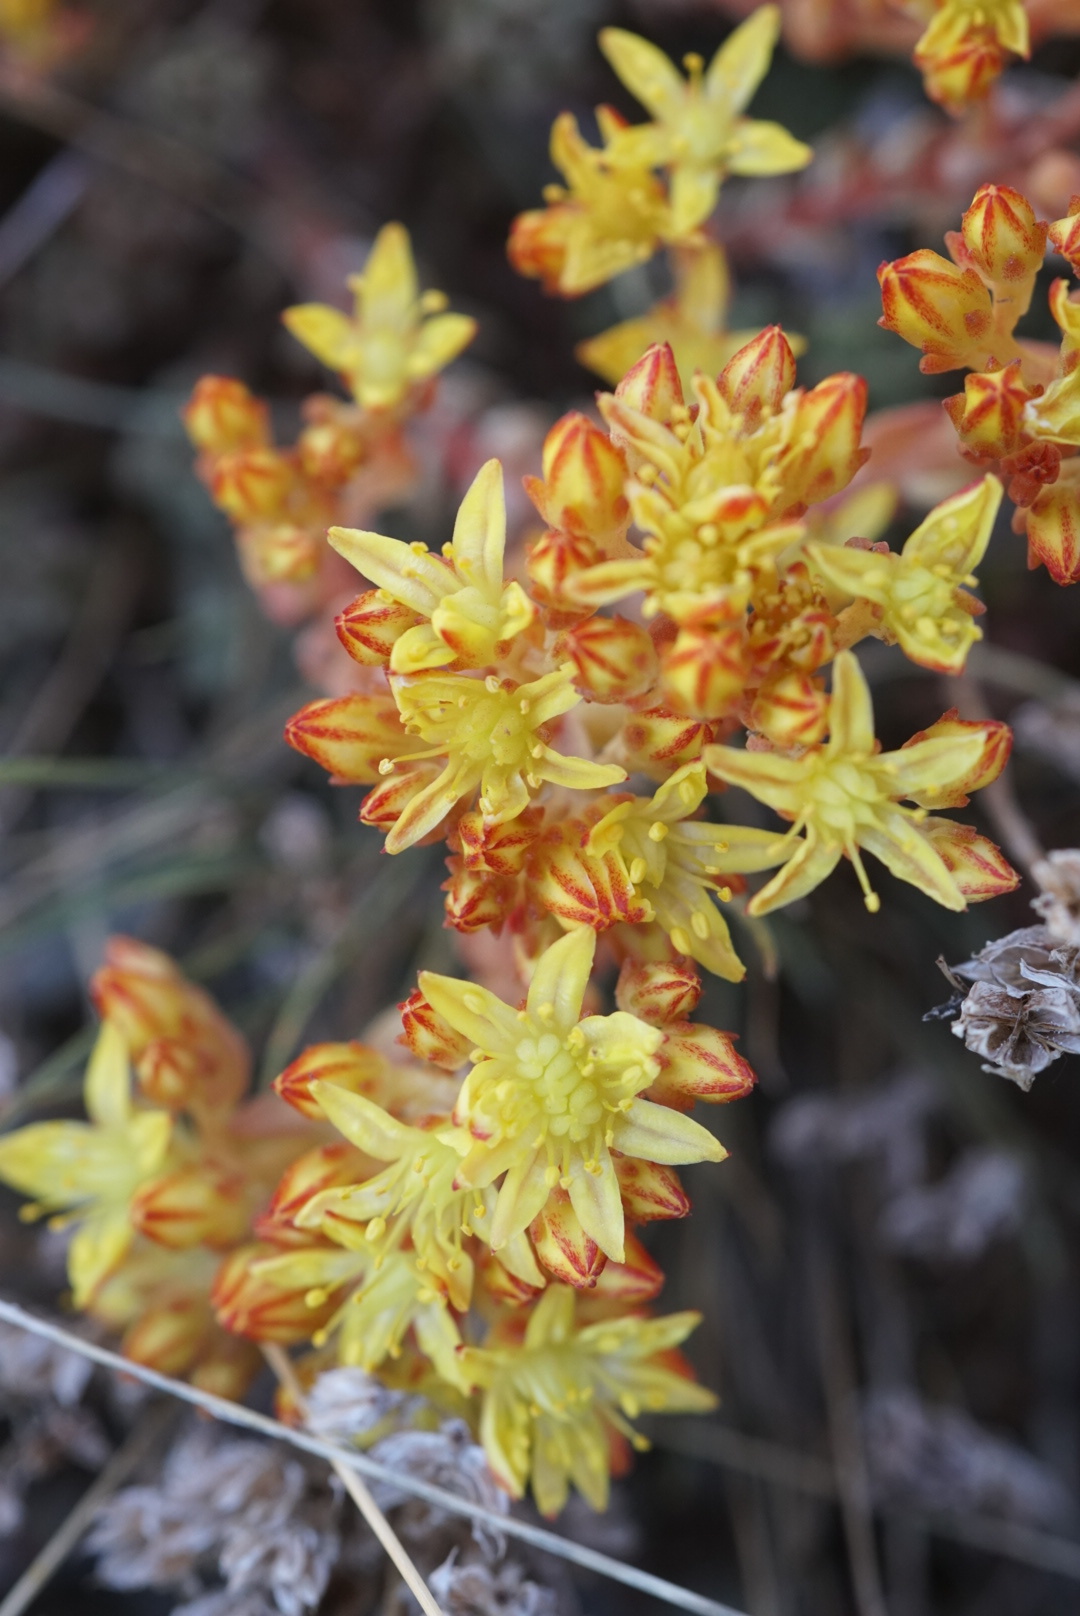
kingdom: Plantae
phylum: Tracheophyta
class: Magnoliopsida
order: Saxifragales
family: Crassulaceae
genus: Sedum
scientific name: Sedum lanceolatum
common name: Common stonecrop
